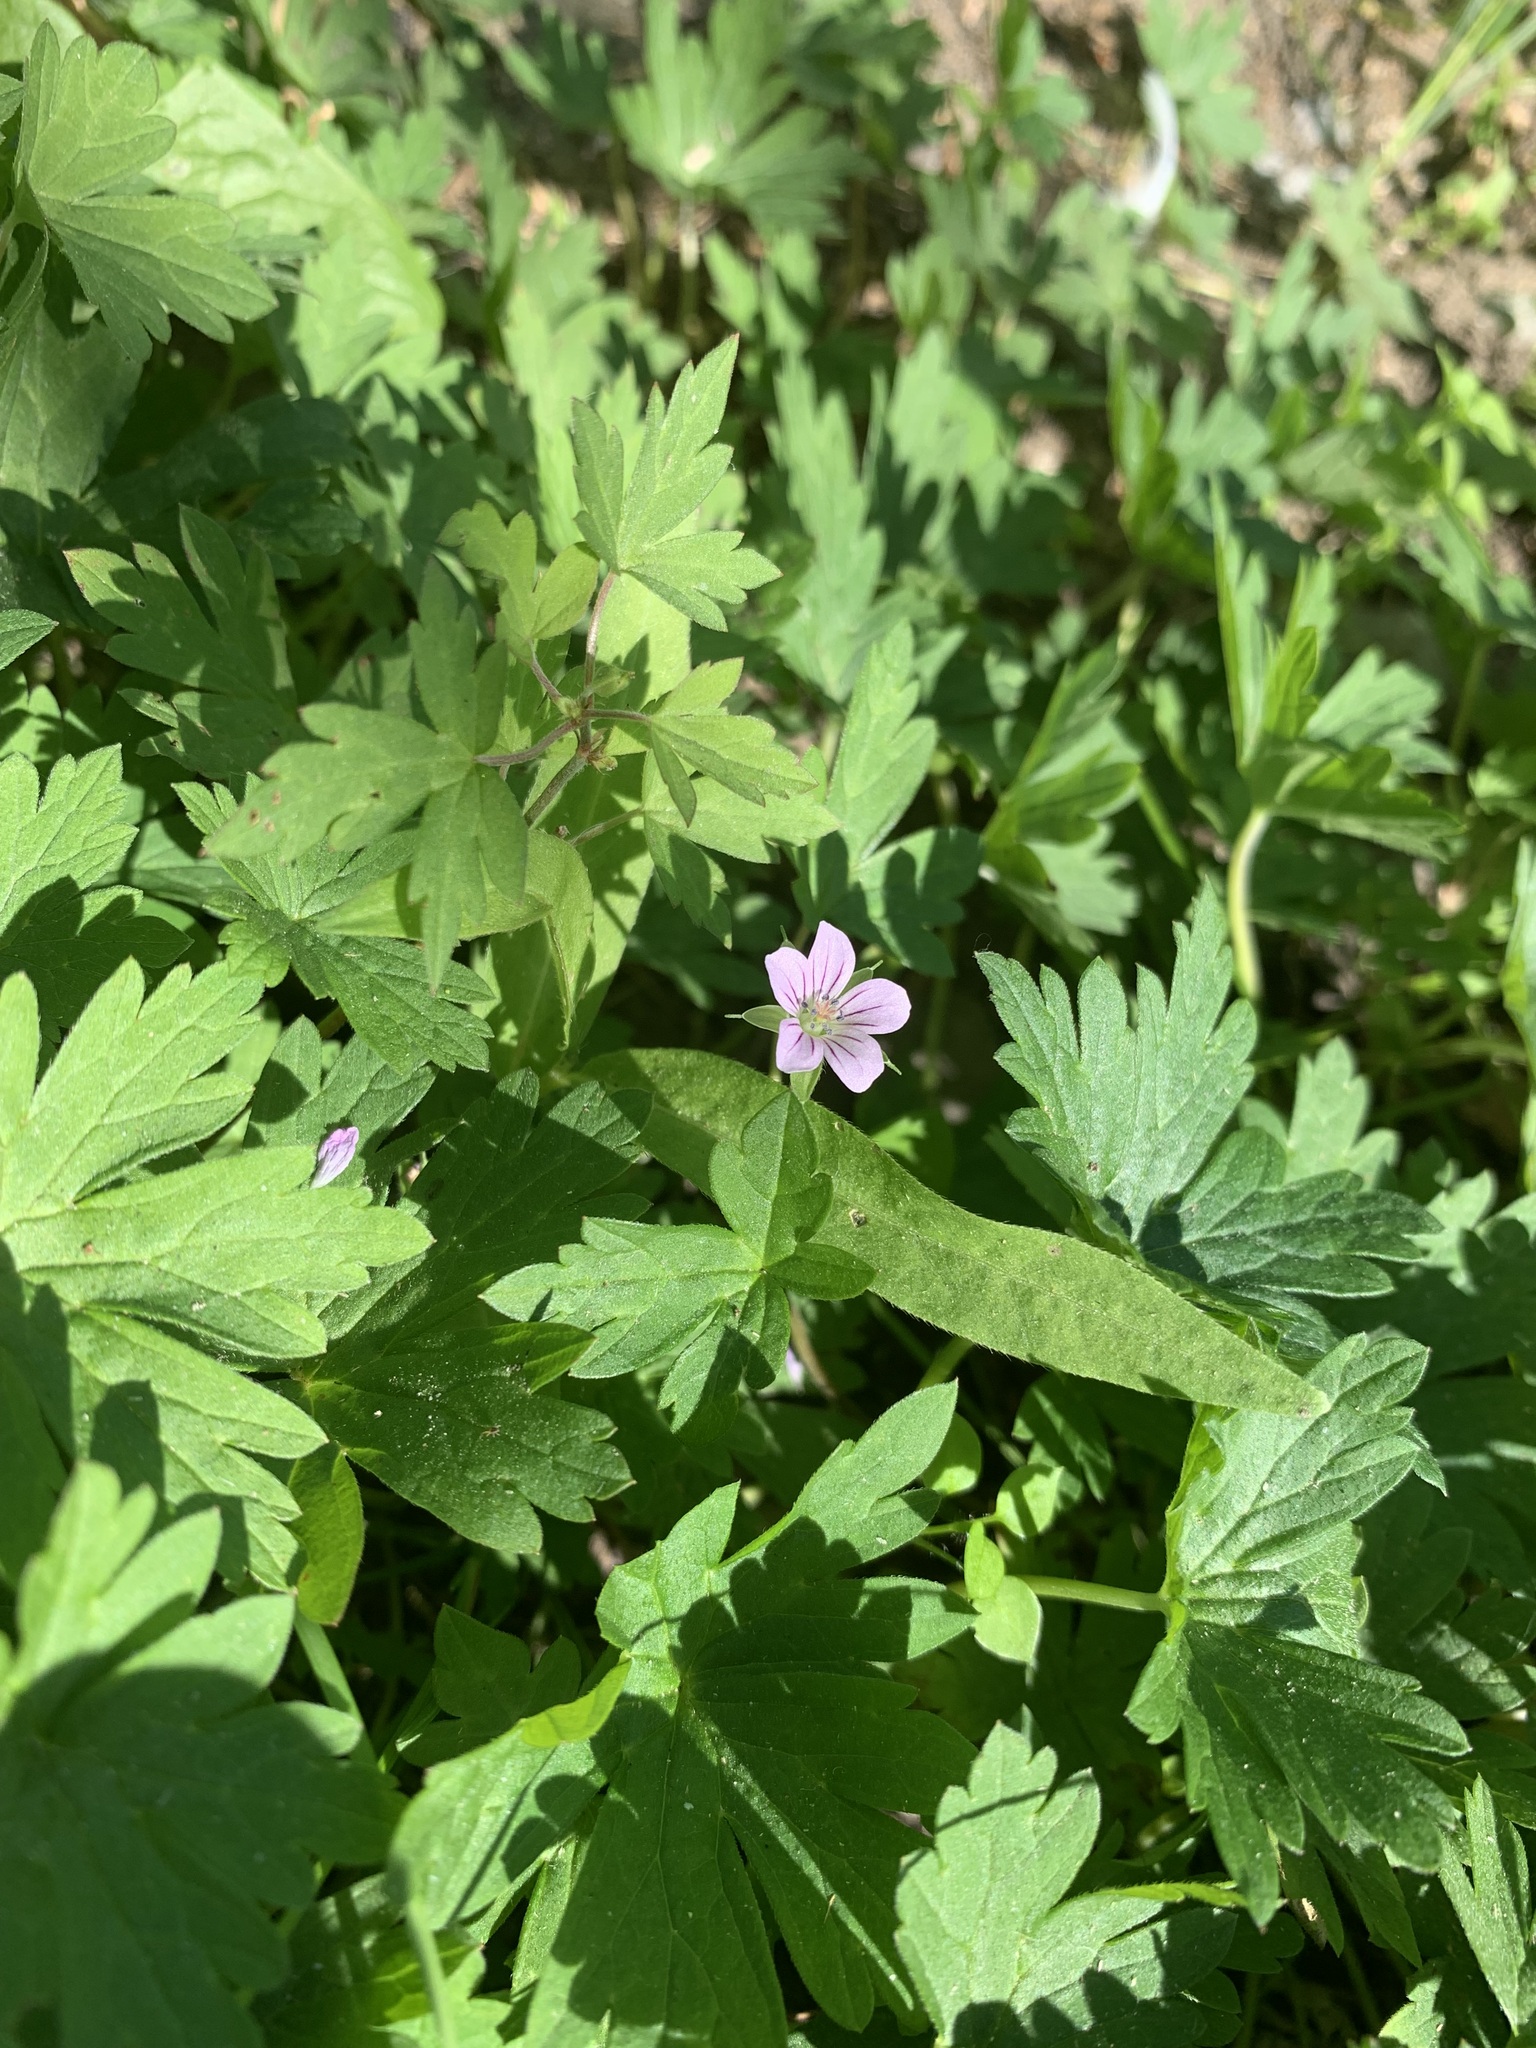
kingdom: Plantae
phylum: Tracheophyta
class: Magnoliopsida
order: Geraniales
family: Geraniaceae
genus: Geranium
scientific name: Geranium sibiricum
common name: Siberian crane's-bill
